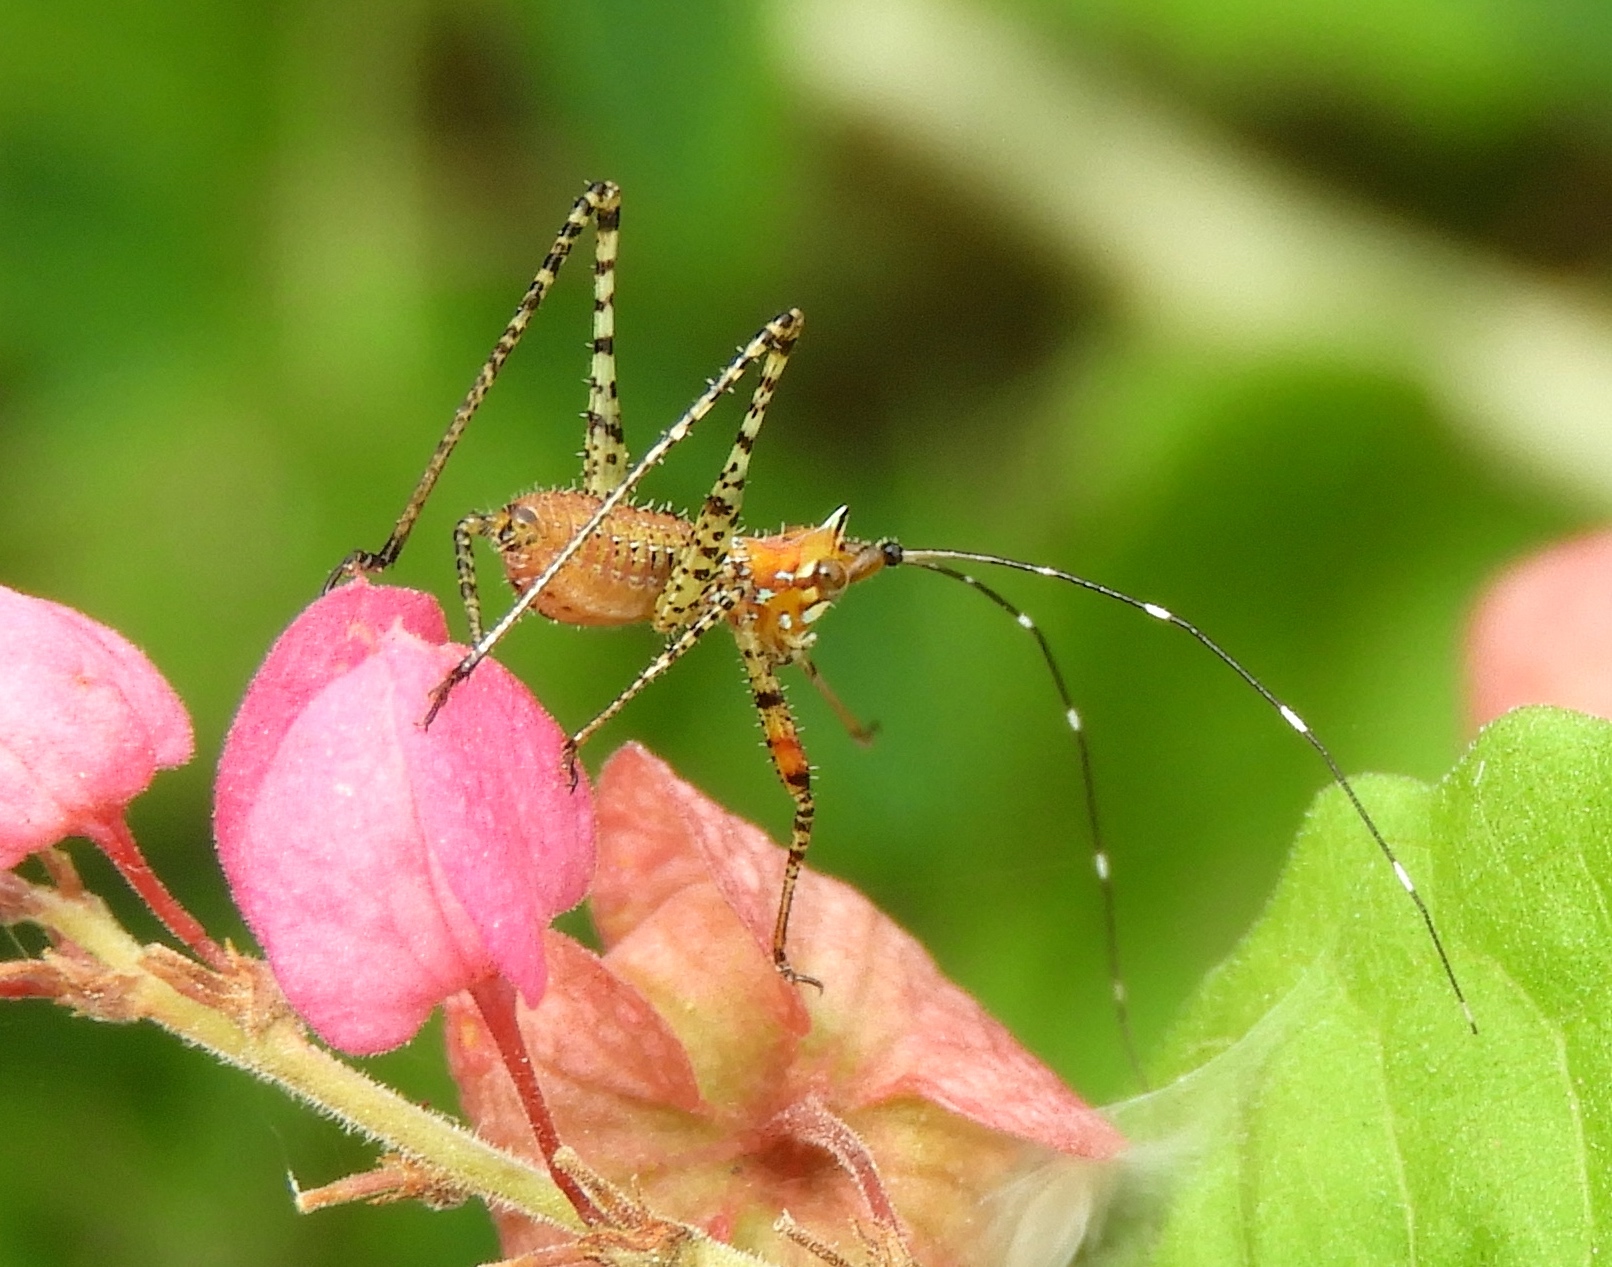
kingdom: Animalia
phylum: Arthropoda
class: Insecta
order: Orthoptera
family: Tettigoniidae
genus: Scudderia
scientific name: Scudderia
